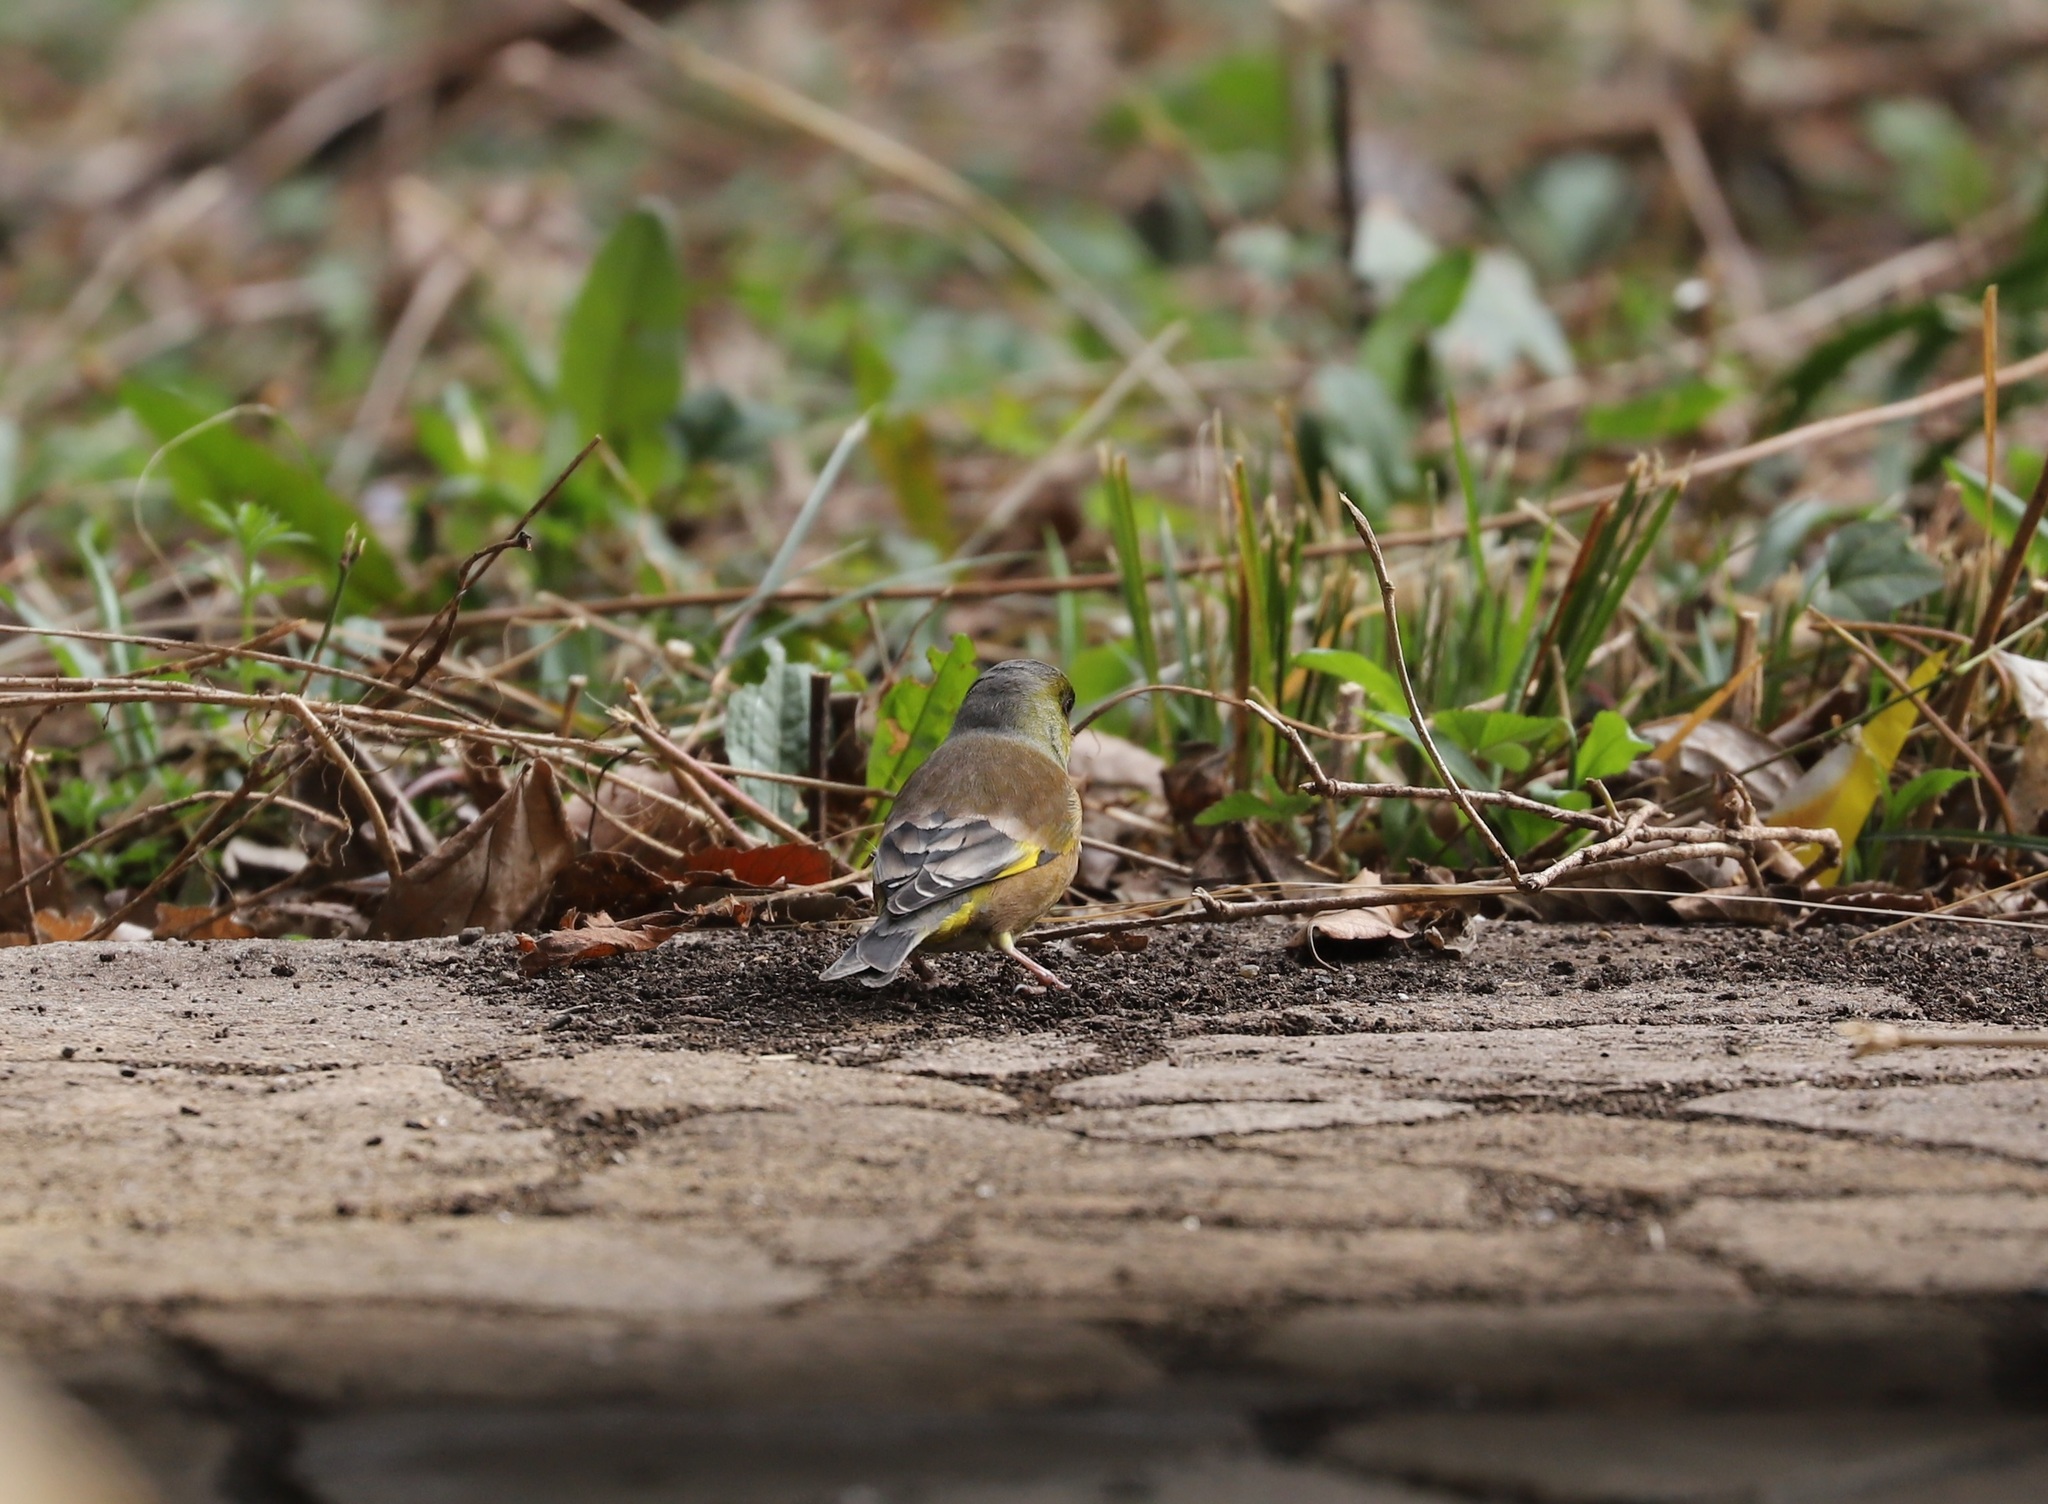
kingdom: Plantae
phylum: Tracheophyta
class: Liliopsida
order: Poales
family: Poaceae
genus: Chloris
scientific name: Chloris sinica
